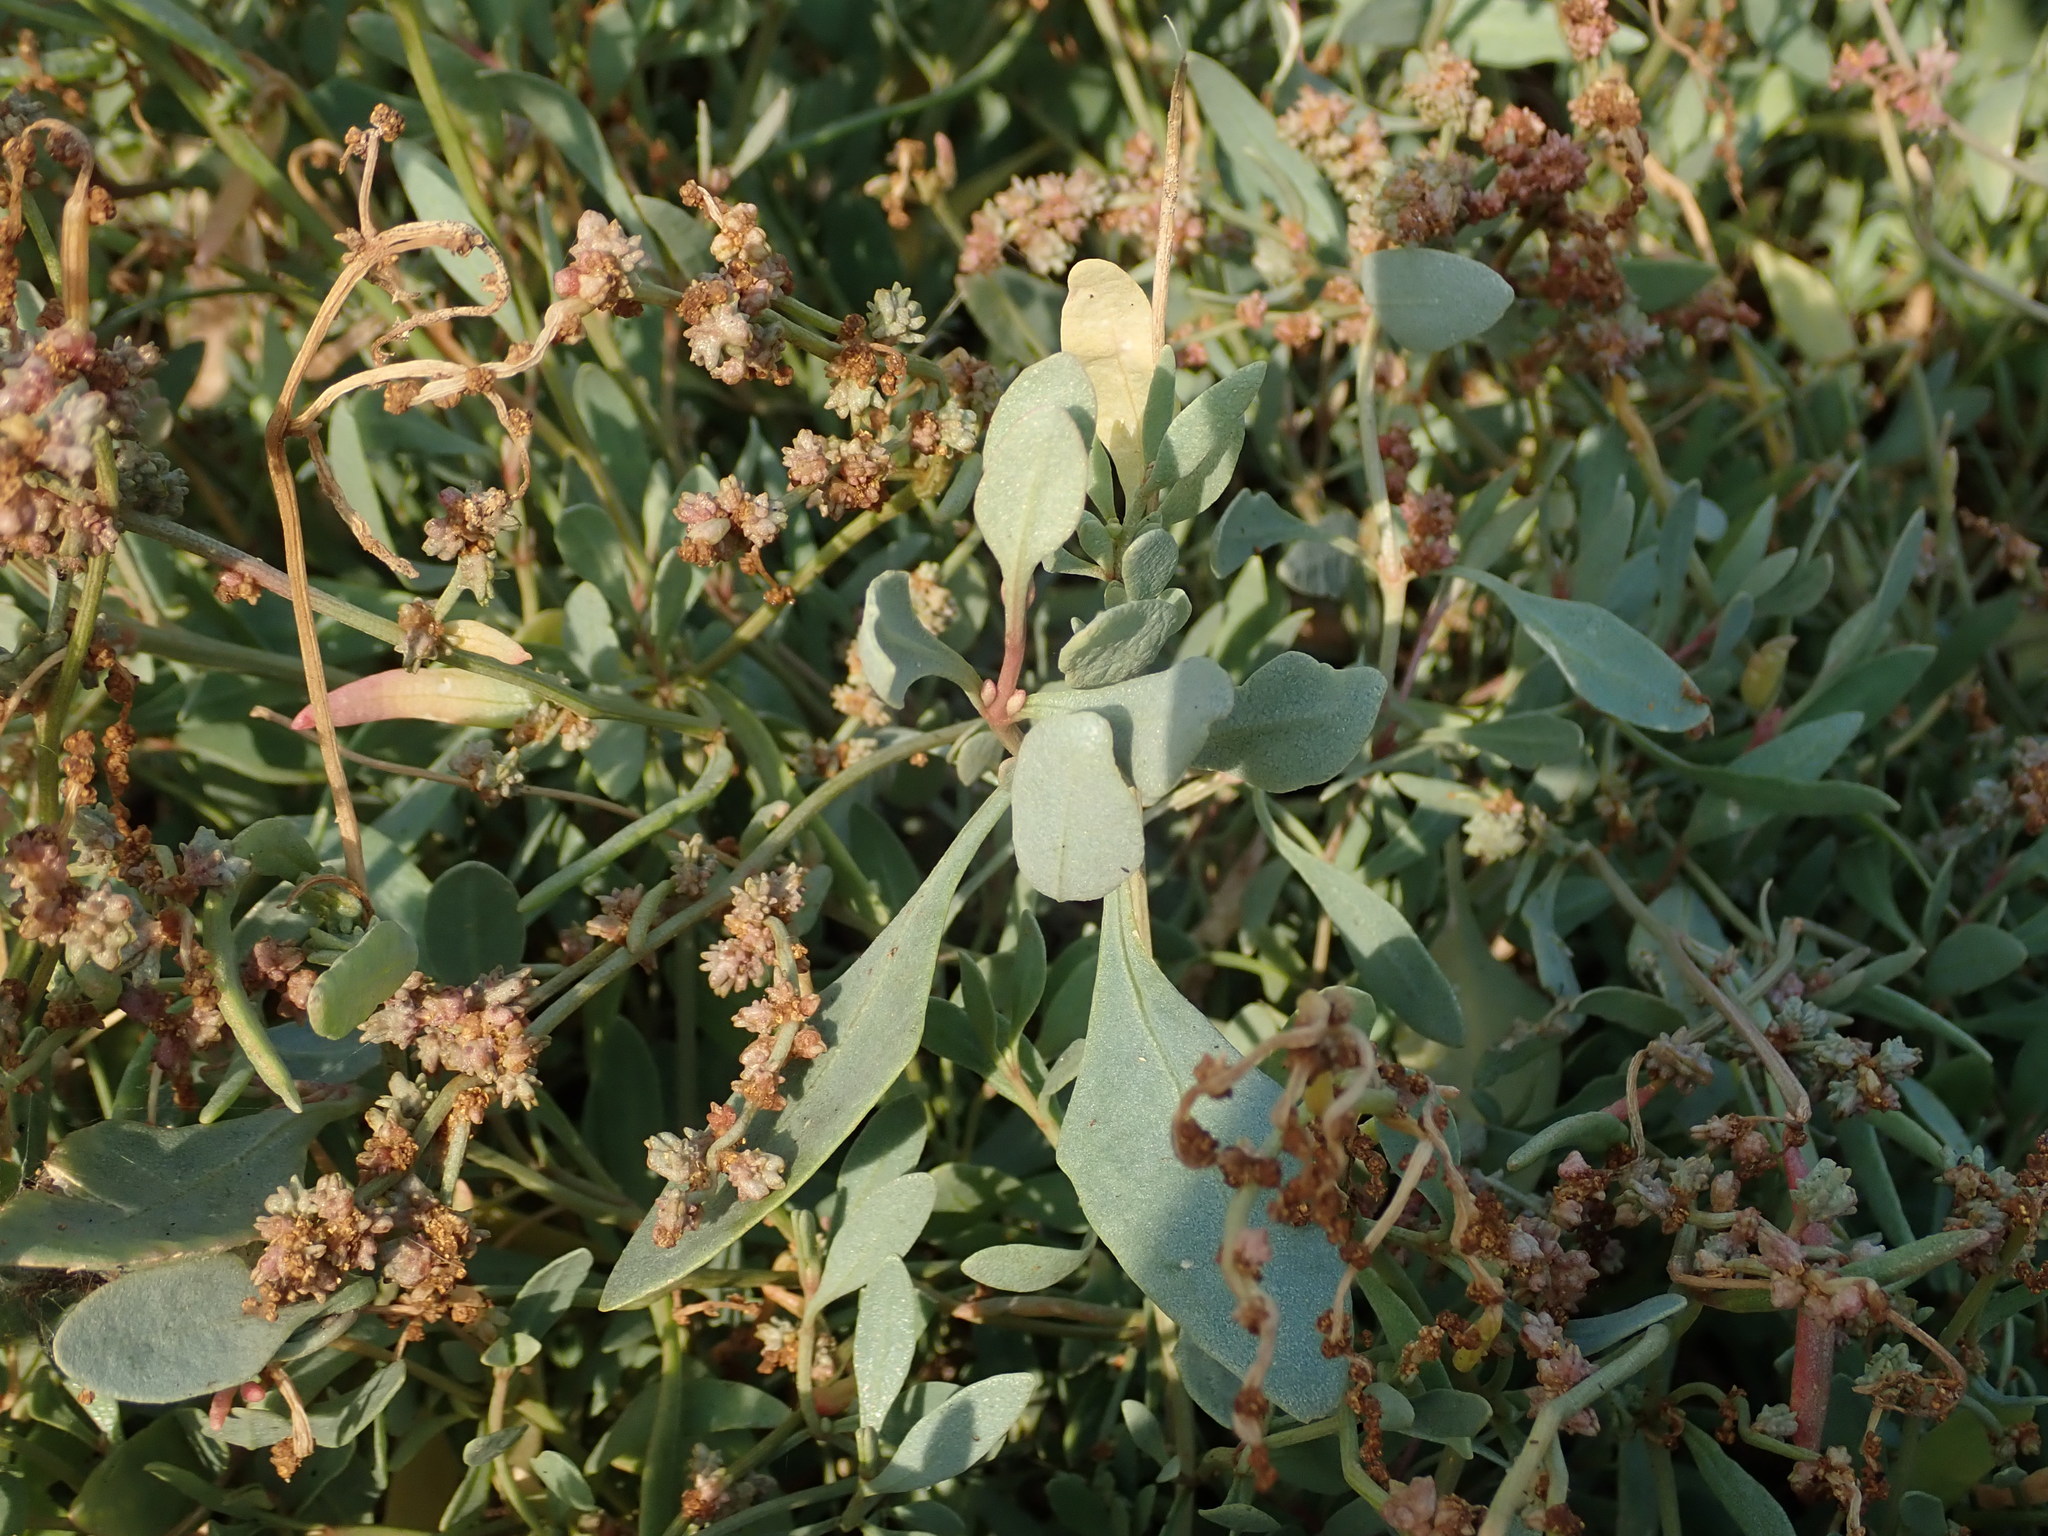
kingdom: Plantae
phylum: Tracheophyta
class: Magnoliopsida
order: Caryophyllales
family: Amaranthaceae
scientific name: Amaranthaceae
